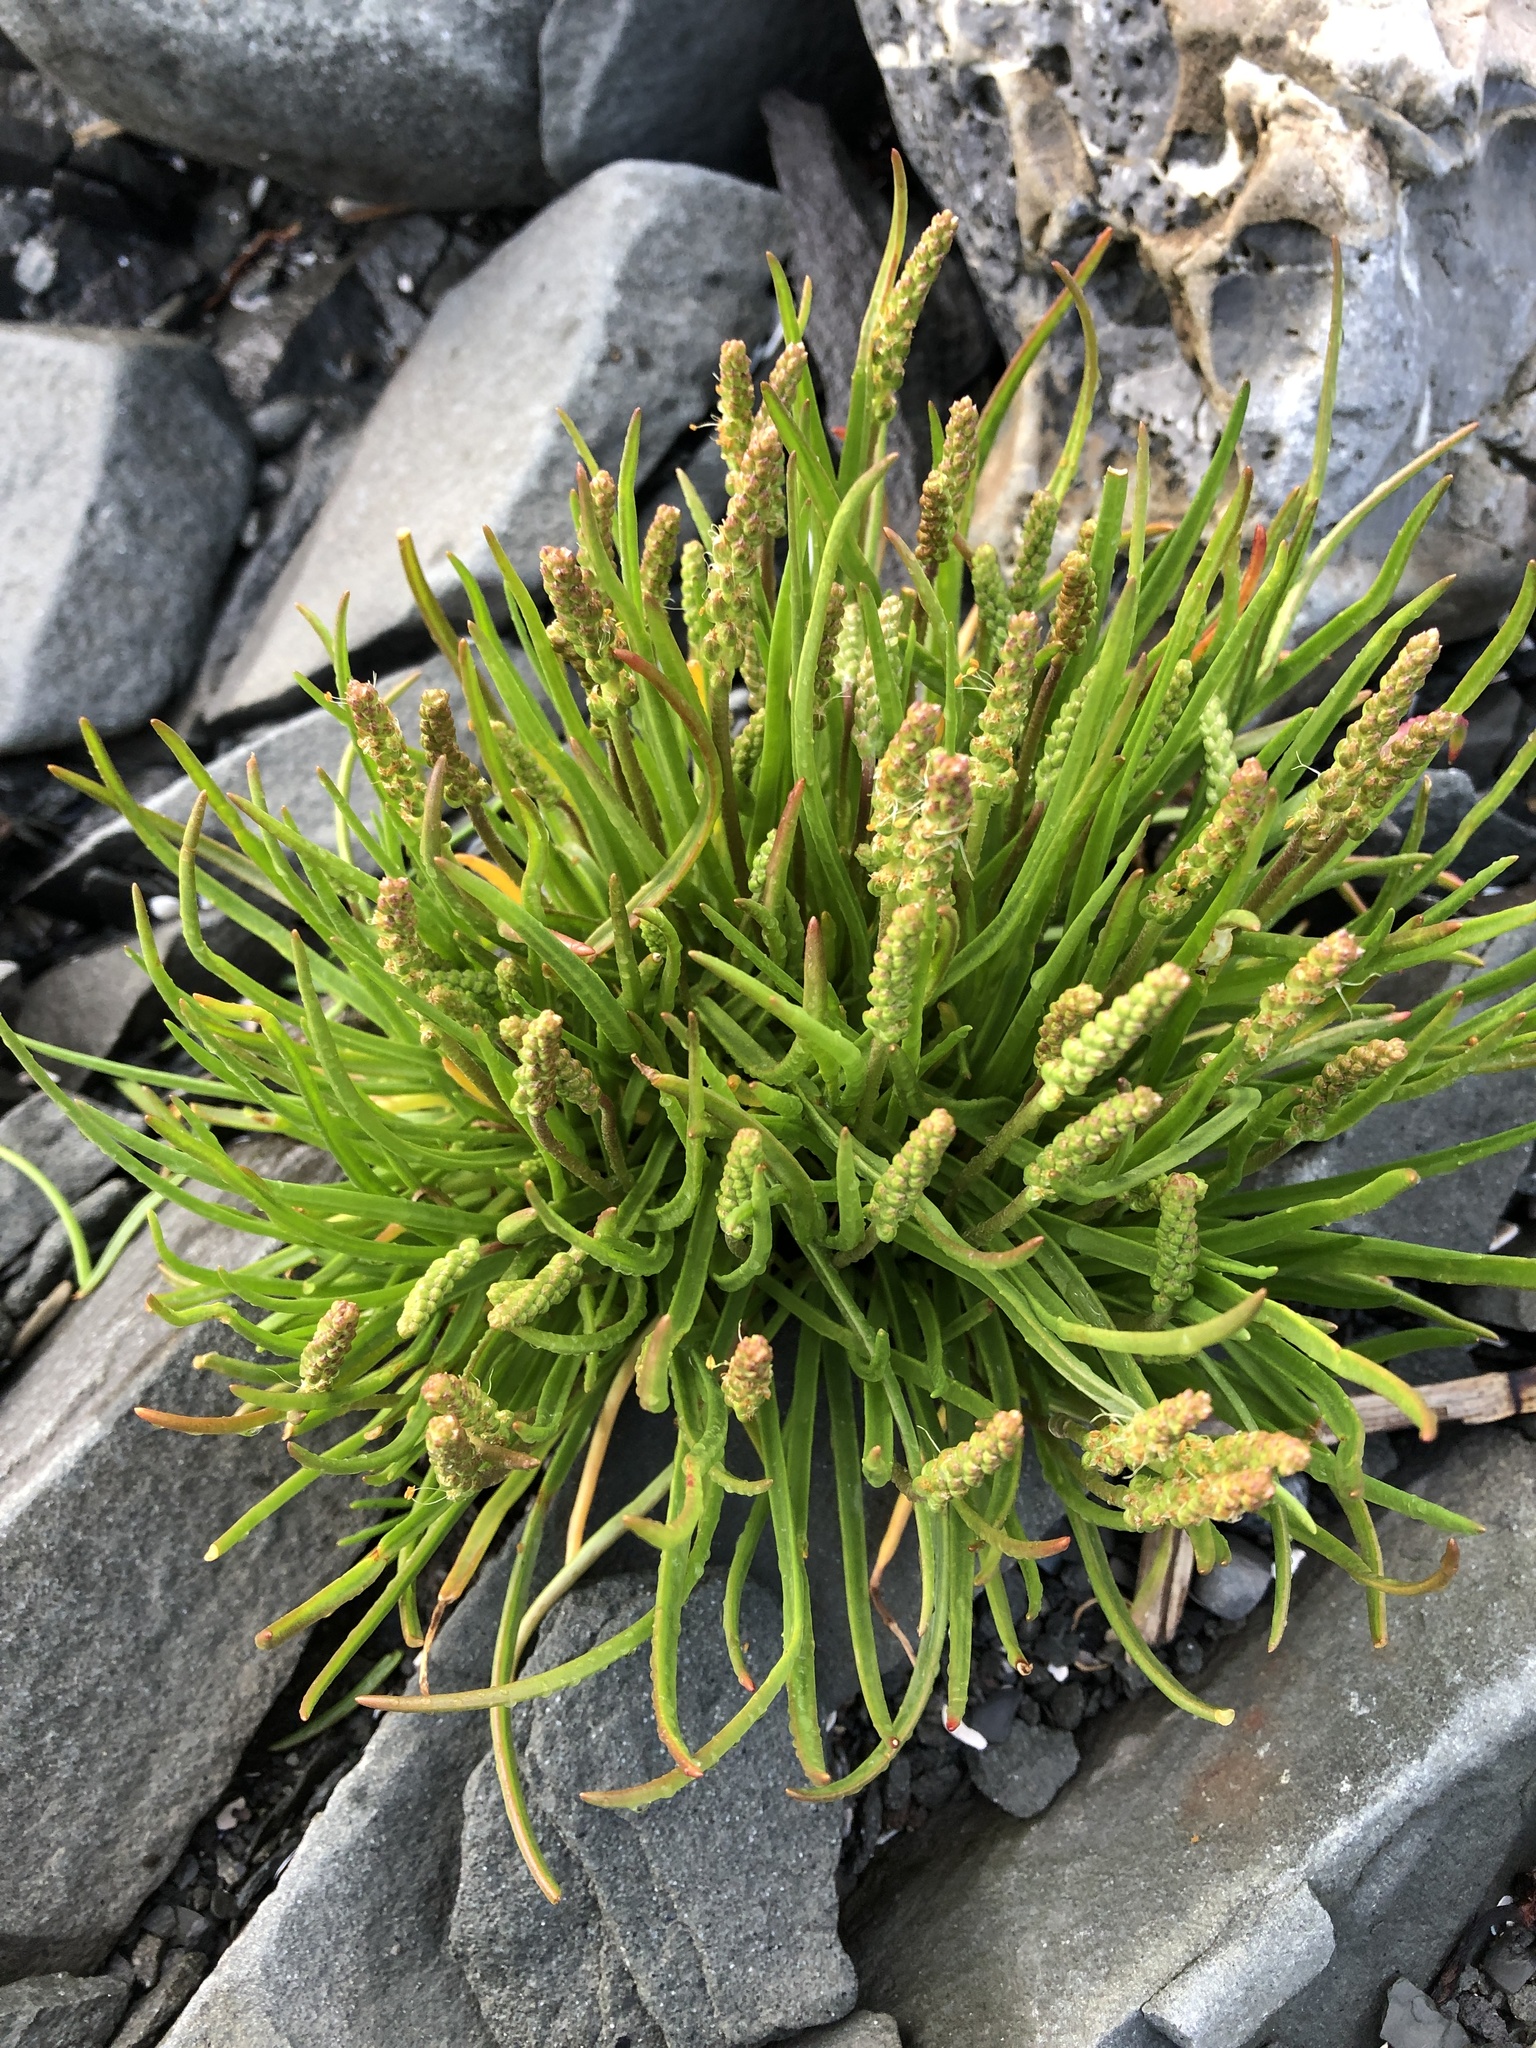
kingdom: Plantae
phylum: Tracheophyta
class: Magnoliopsida
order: Lamiales
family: Plantaginaceae
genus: Plantago
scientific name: Plantago maritima
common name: Sea plantain
